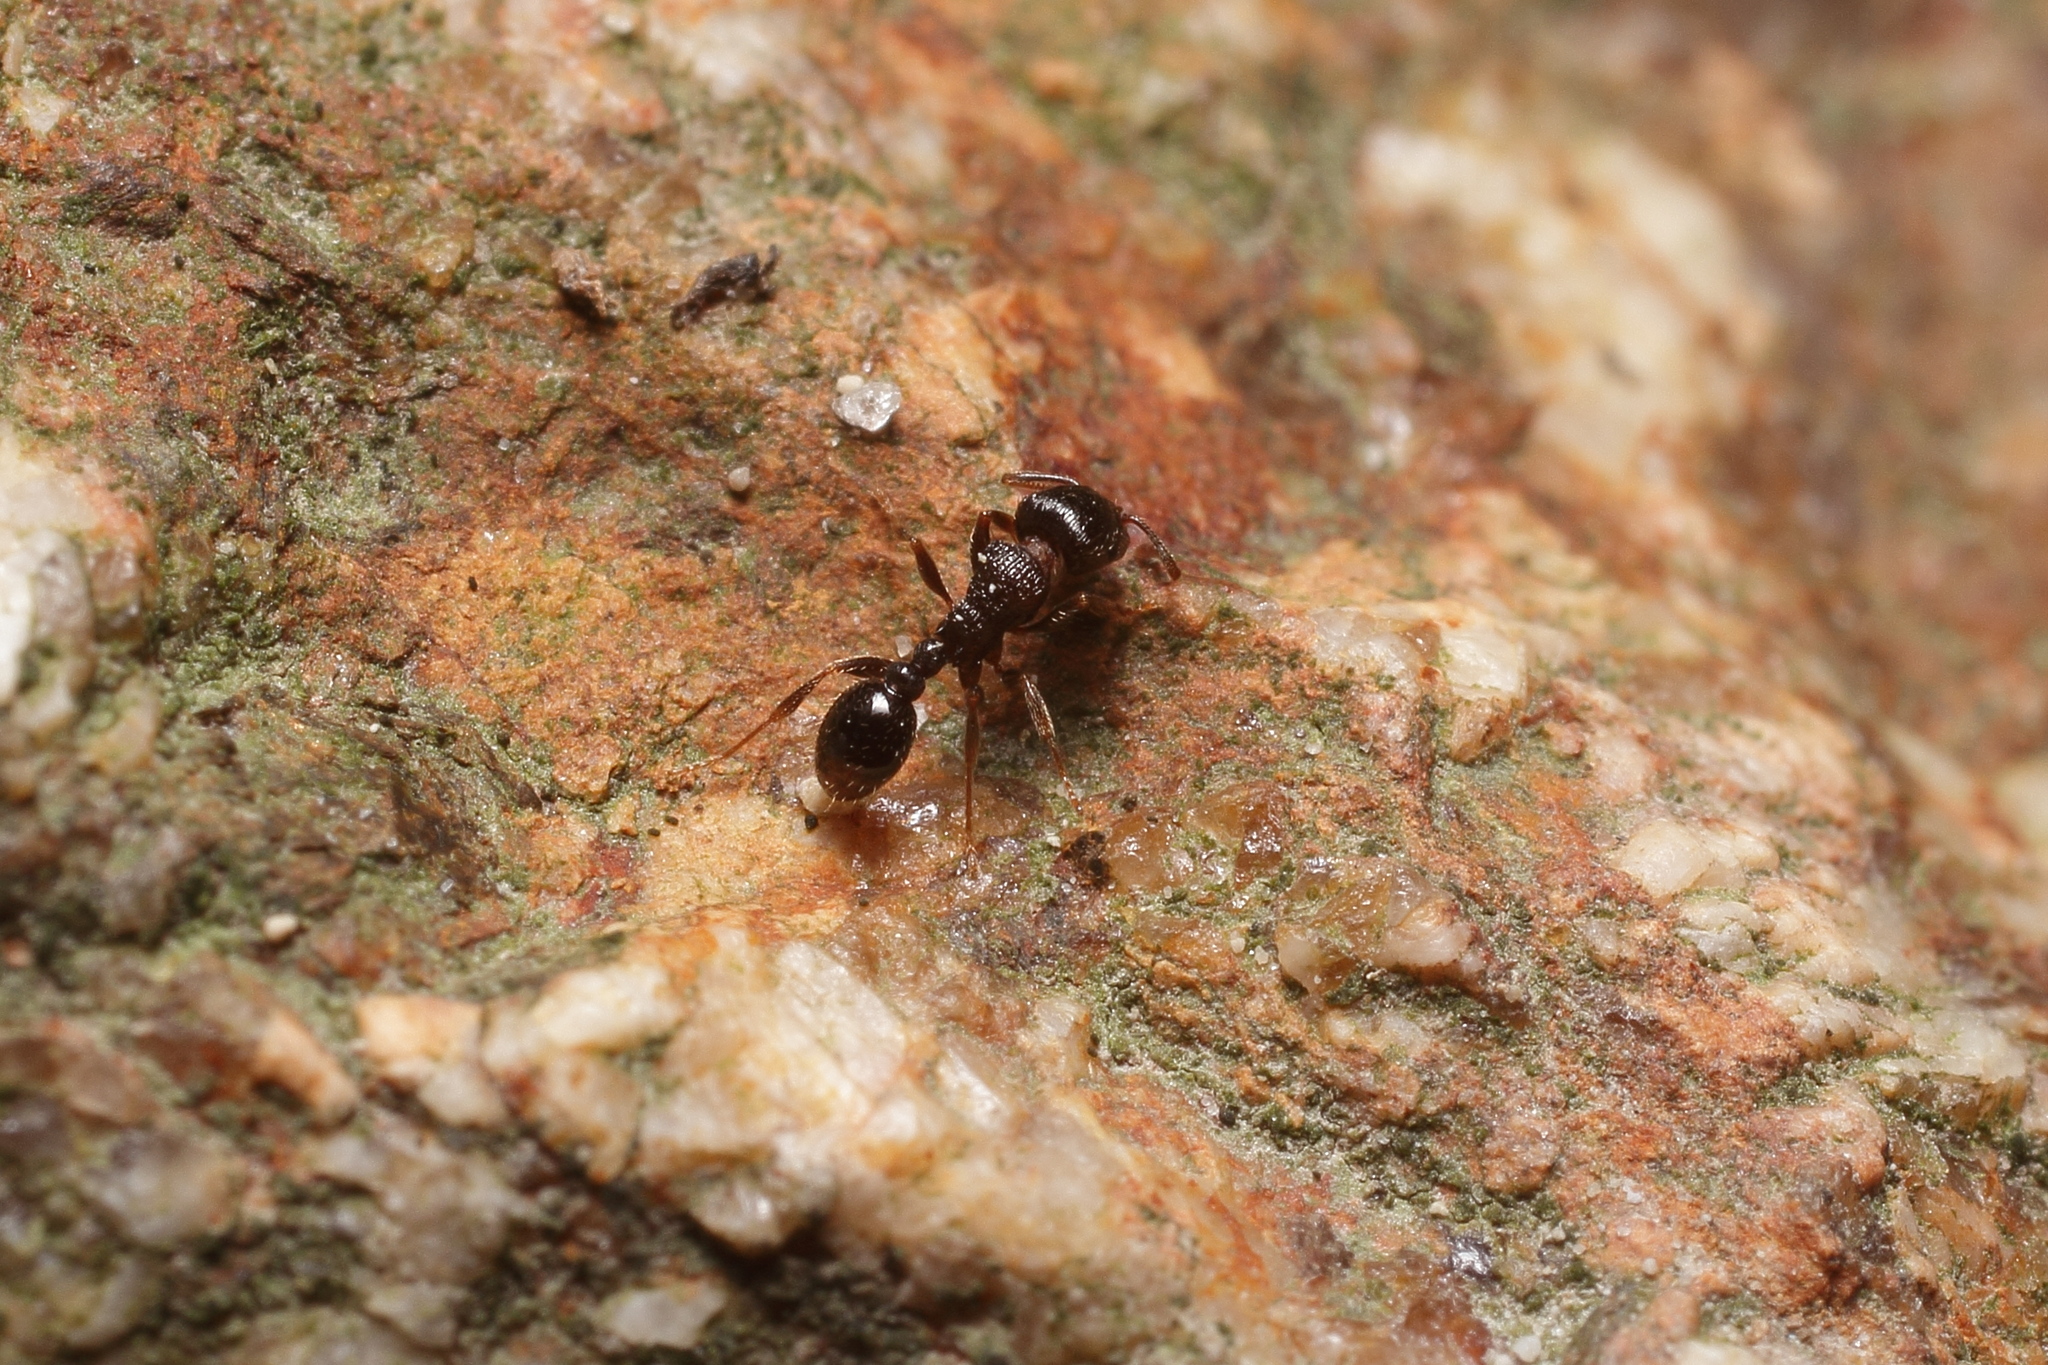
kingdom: Animalia
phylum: Arthropoda
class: Insecta
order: Hymenoptera
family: Formicidae
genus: Tetramorium
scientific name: Tetramorium tsushimae
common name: Ant
